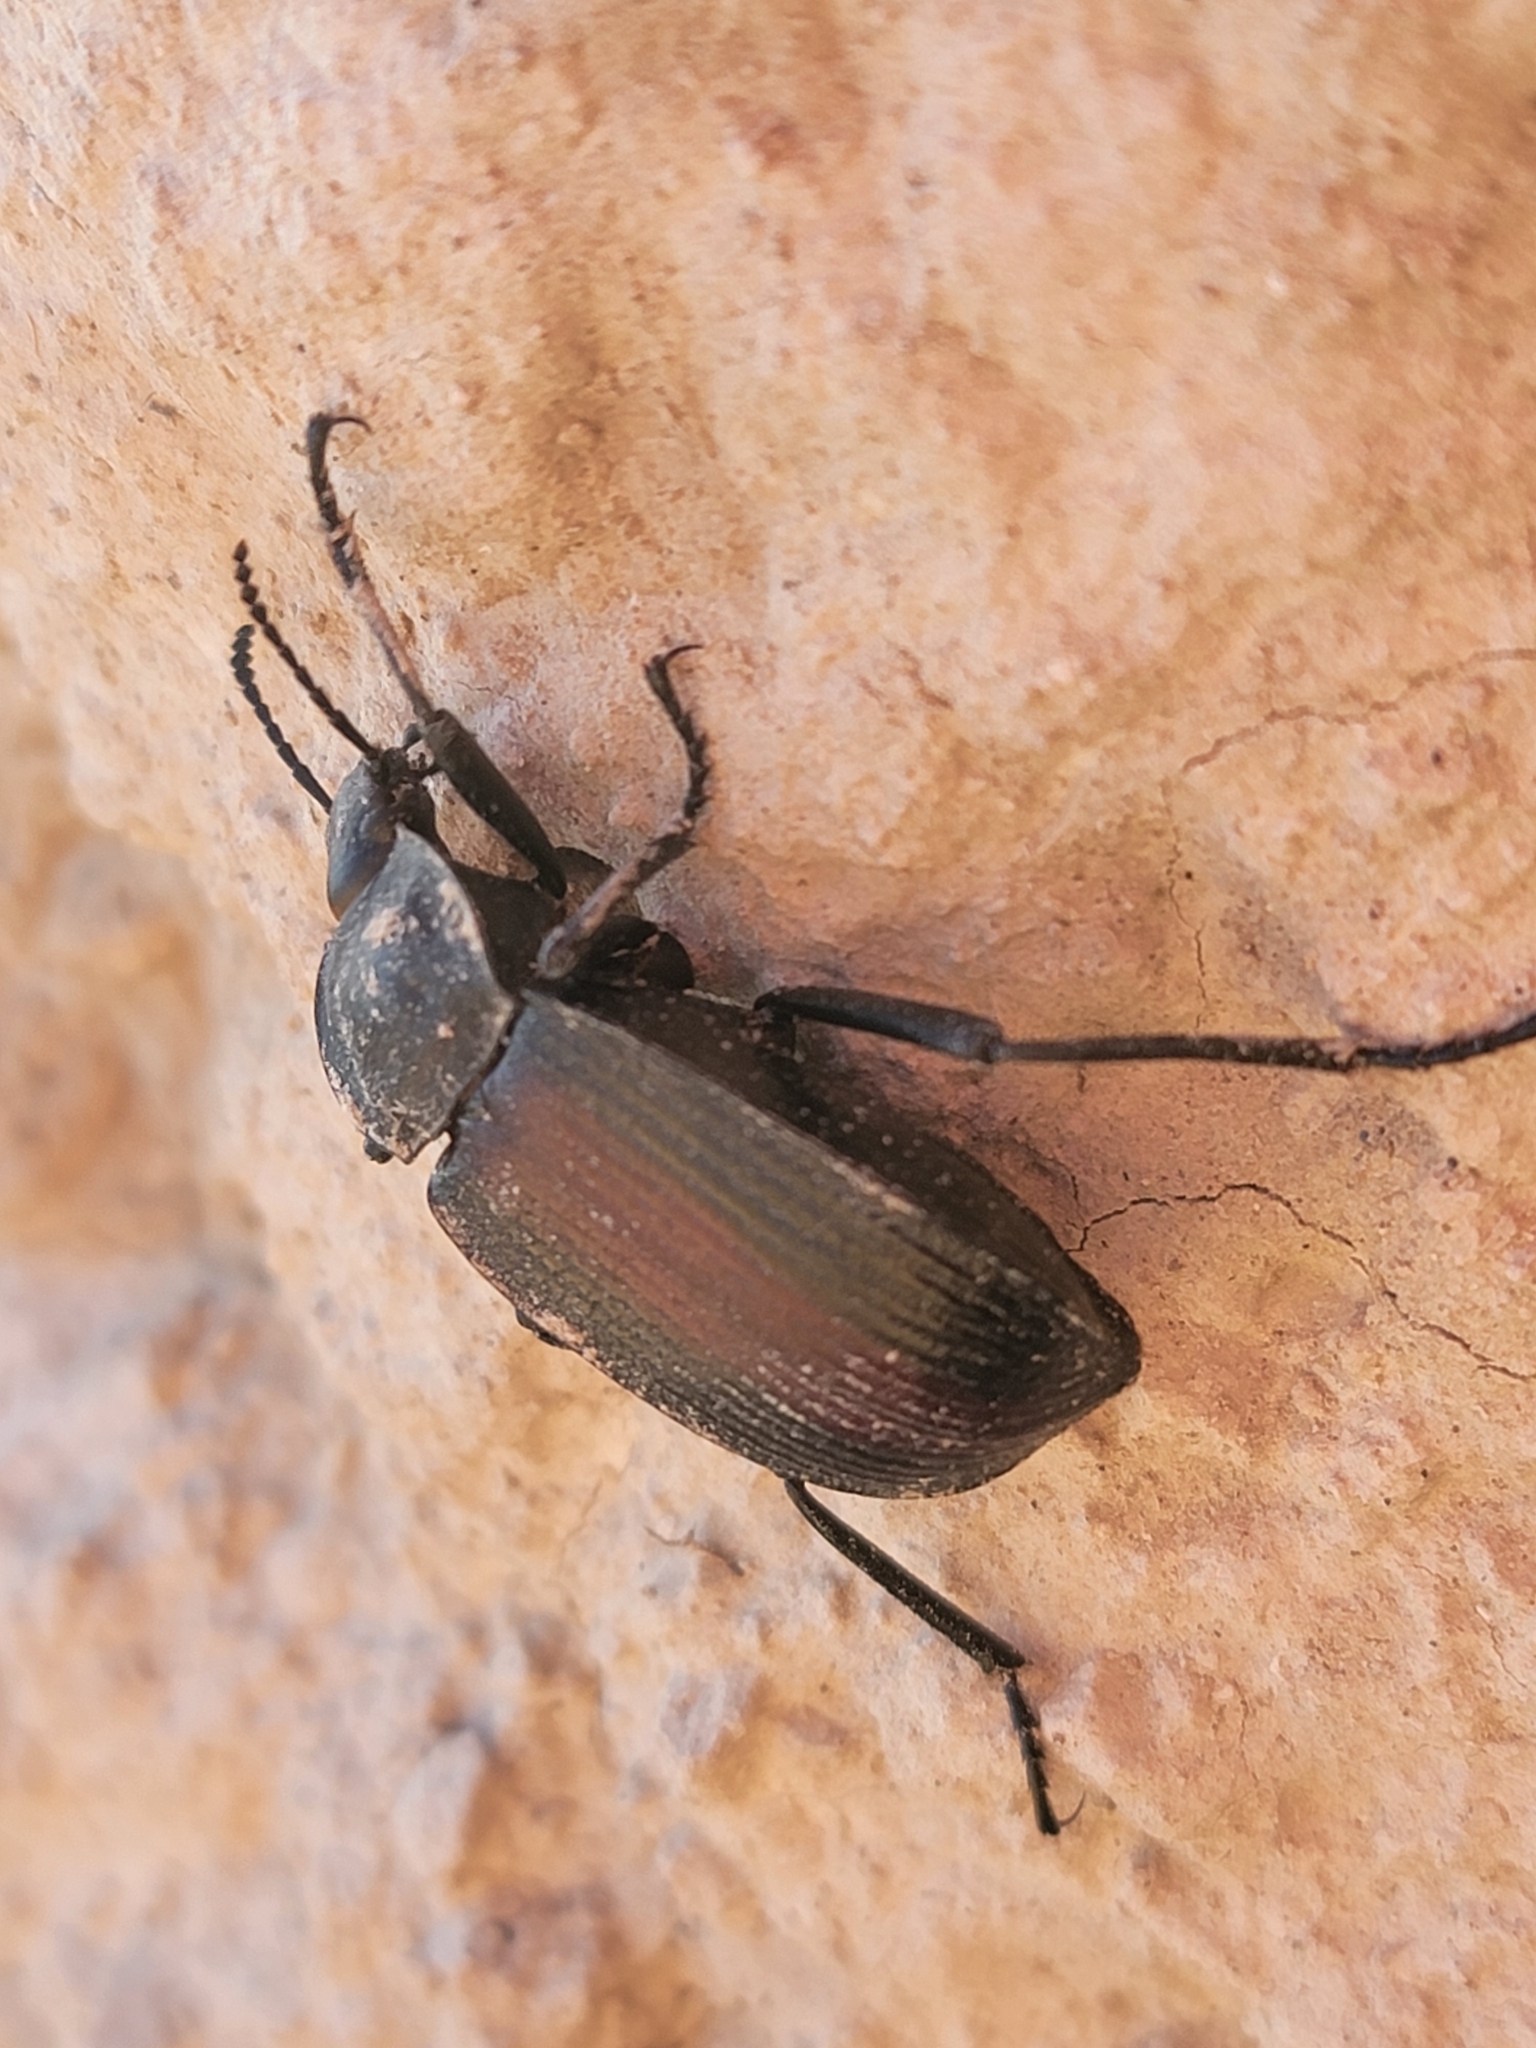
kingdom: Animalia
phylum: Arthropoda
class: Insecta
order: Coleoptera
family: Tenebrionidae
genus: Eleodes
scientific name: Eleodes suturalis
